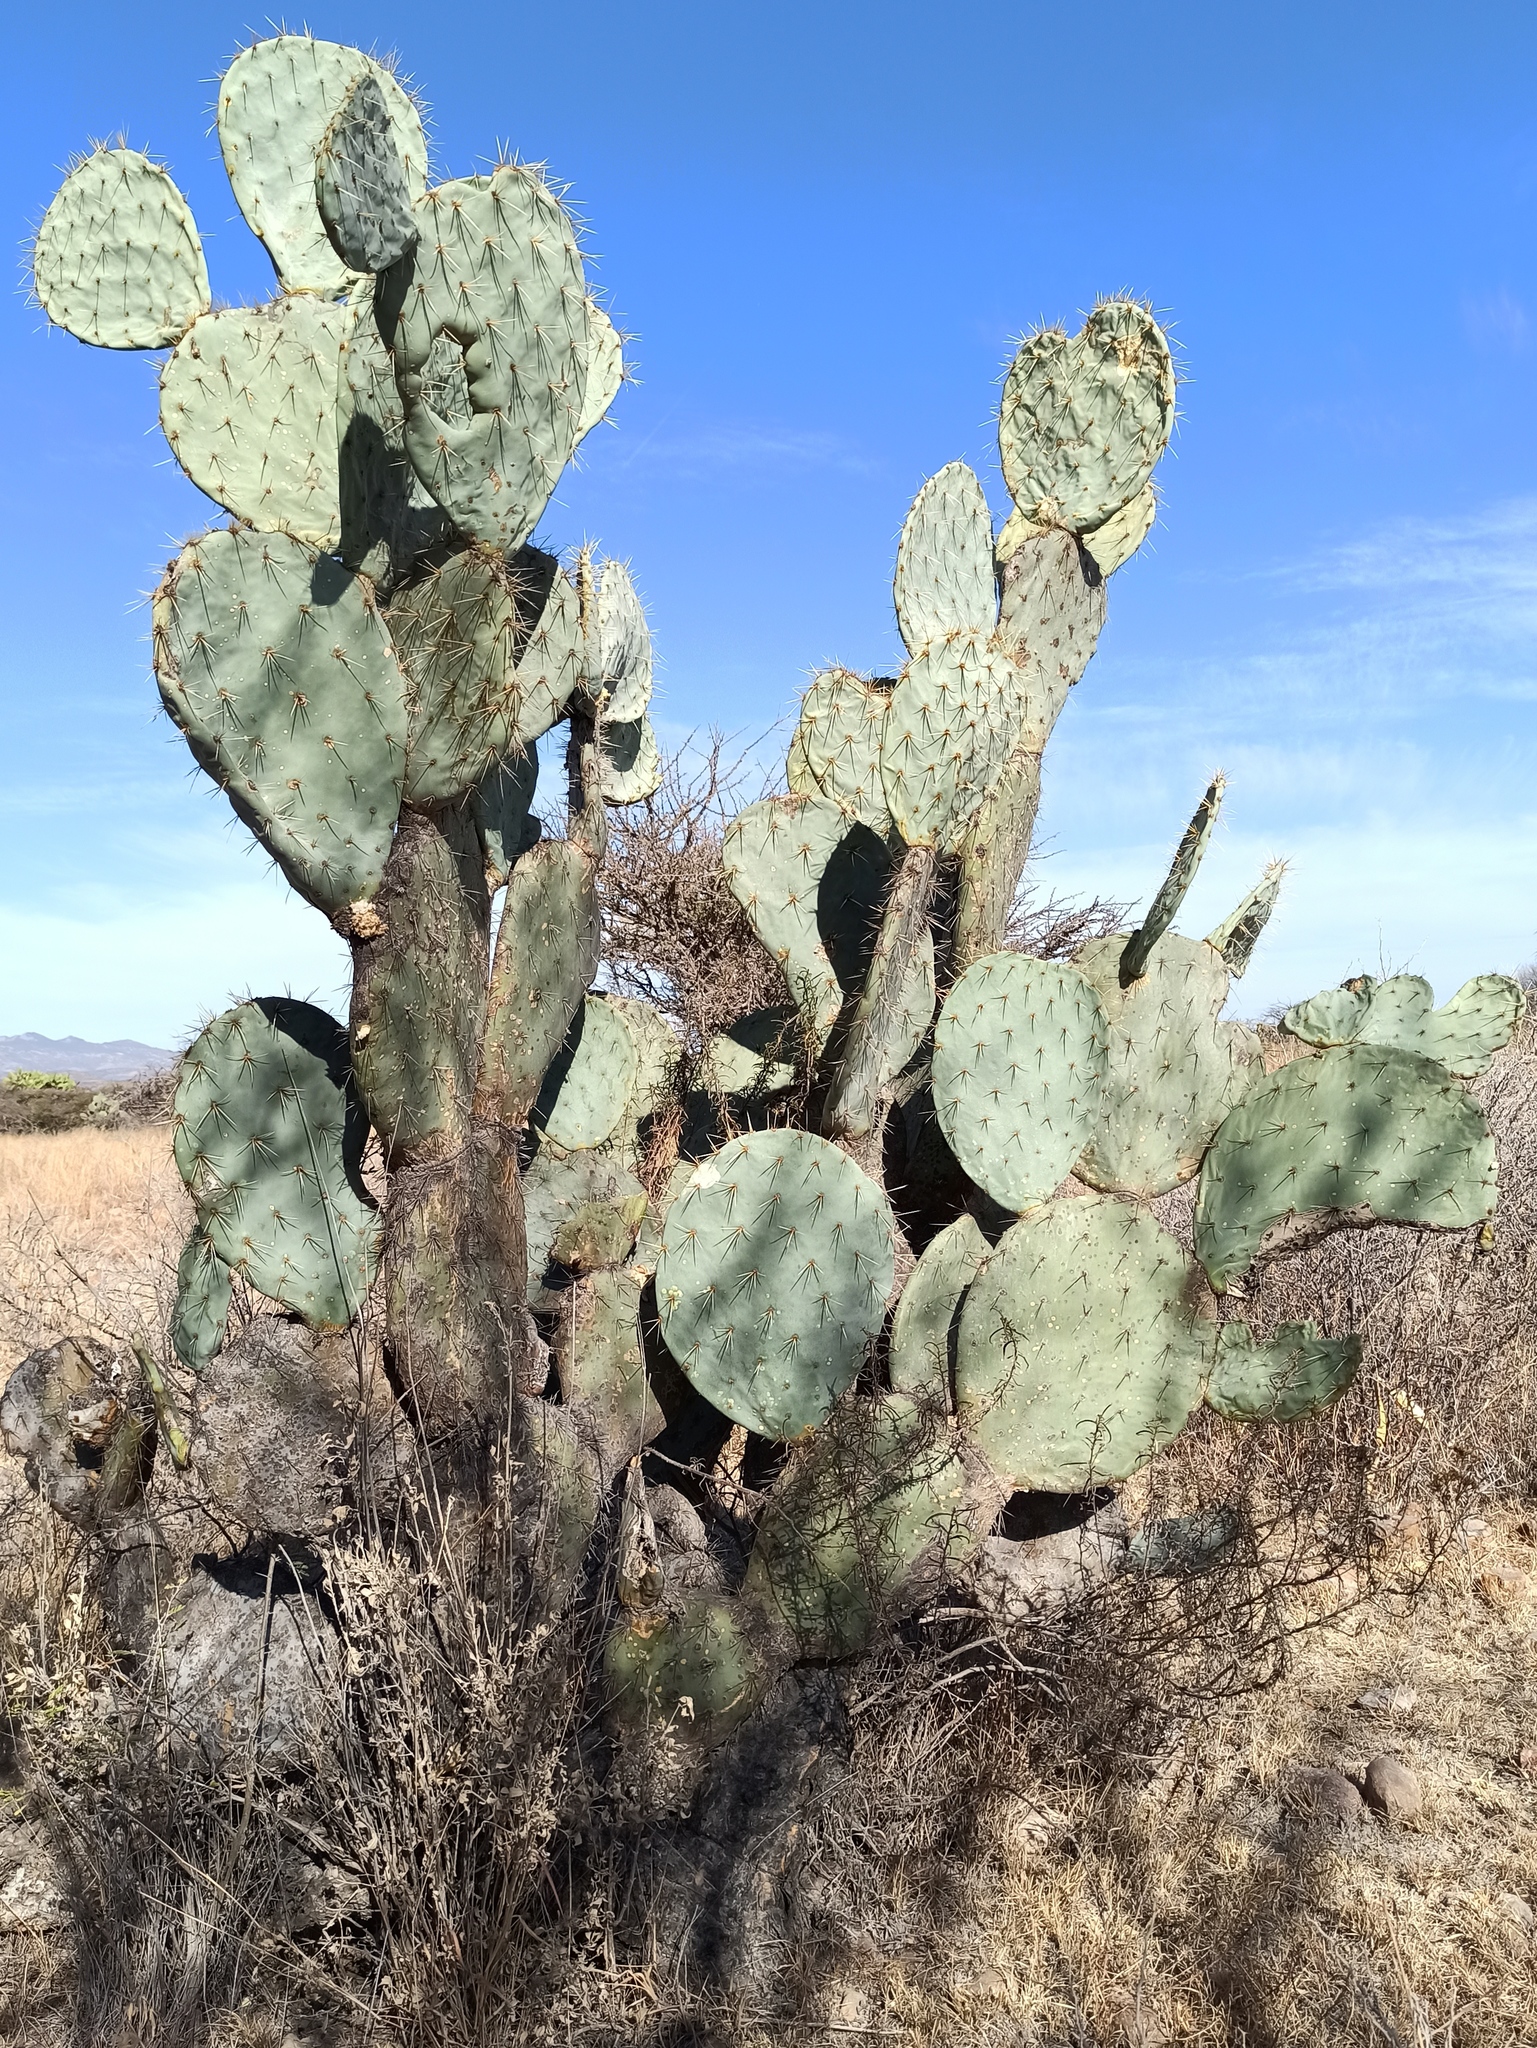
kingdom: Plantae
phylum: Tracheophyta
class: Magnoliopsida
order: Caryophyllales
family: Cactaceae
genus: Opuntia
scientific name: Opuntia robusta
